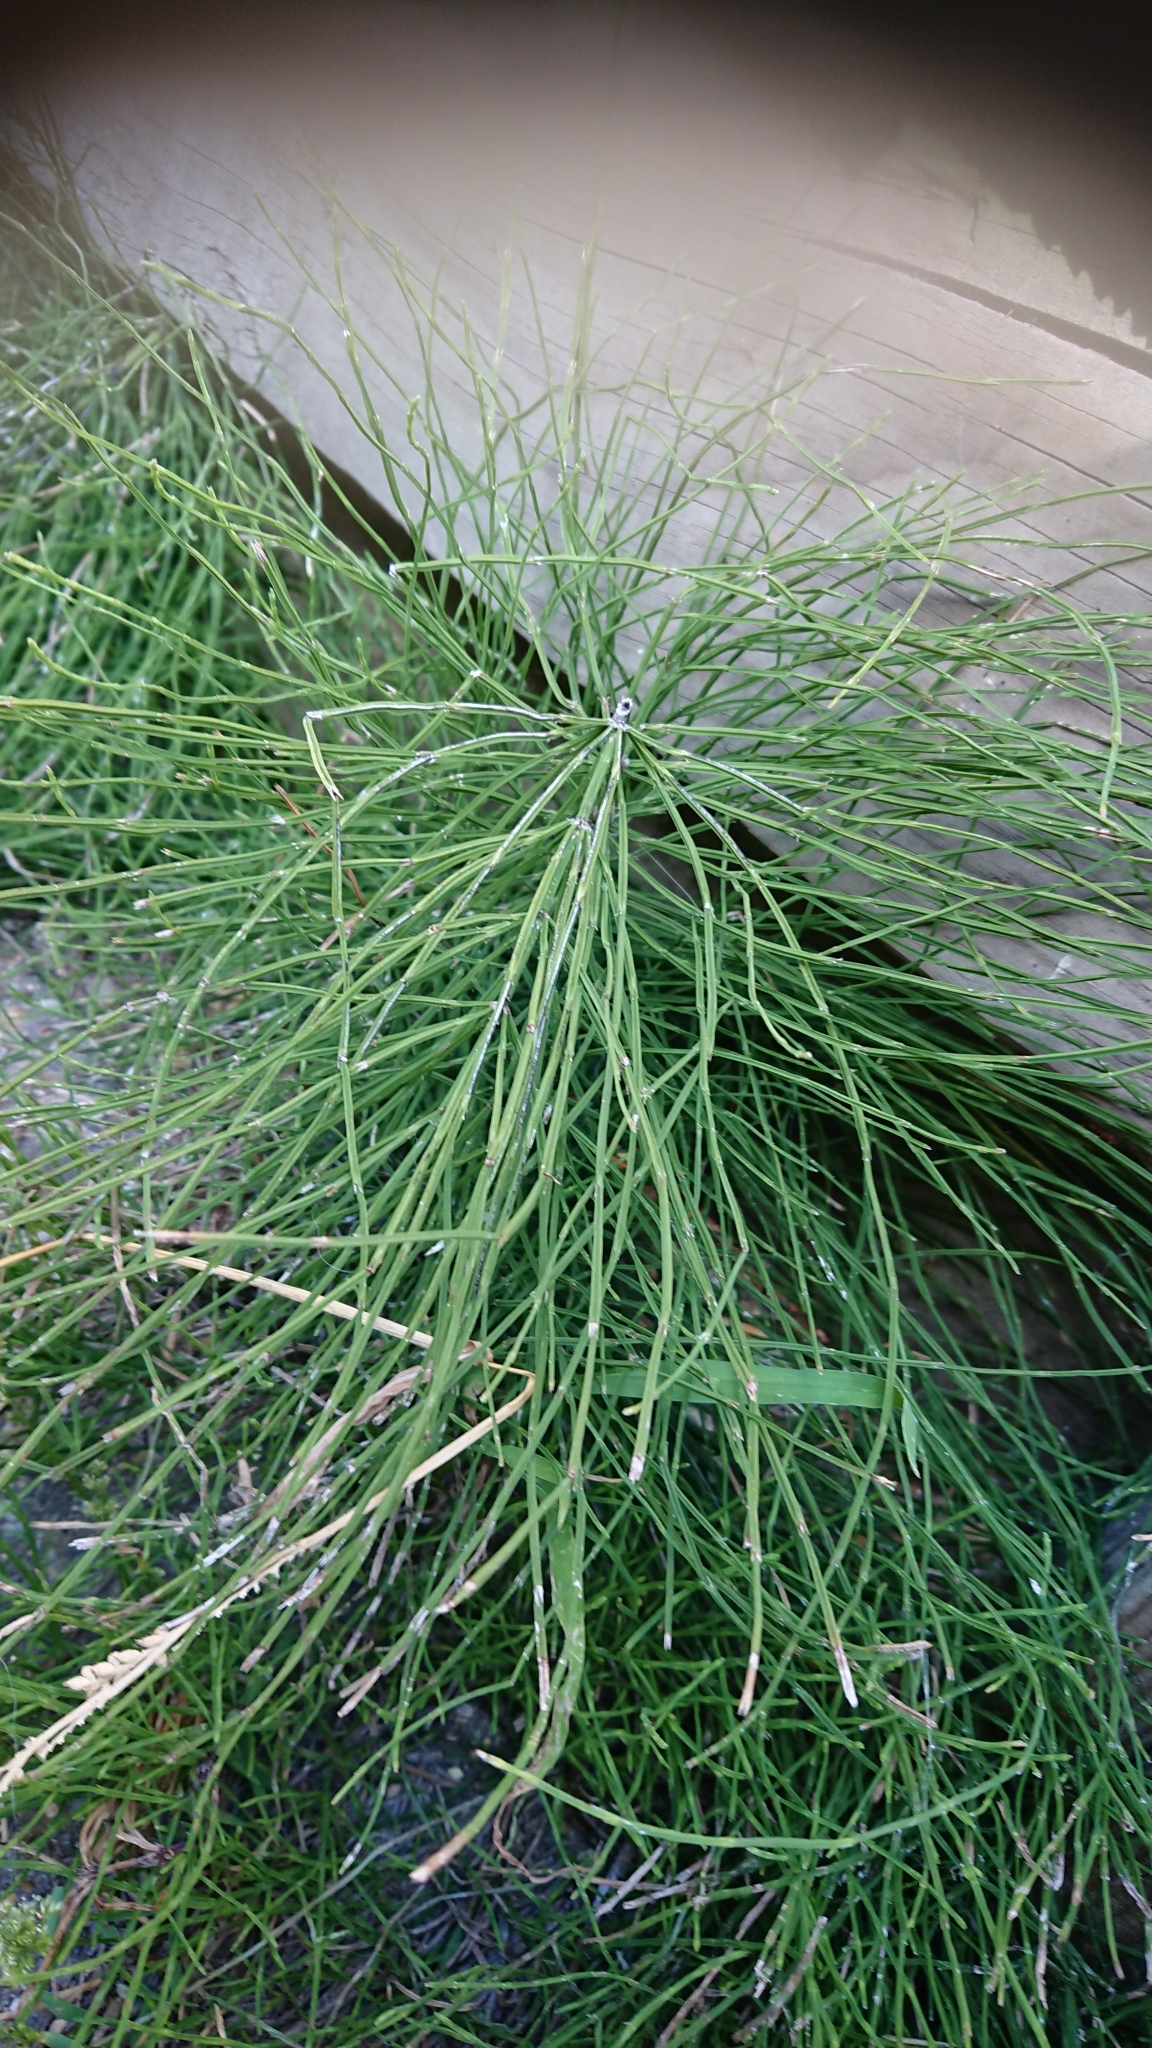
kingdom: Plantae
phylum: Tracheophyta
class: Polypodiopsida
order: Equisetales
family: Equisetaceae
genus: Equisetum
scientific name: Equisetum arvense
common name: Field horsetail
